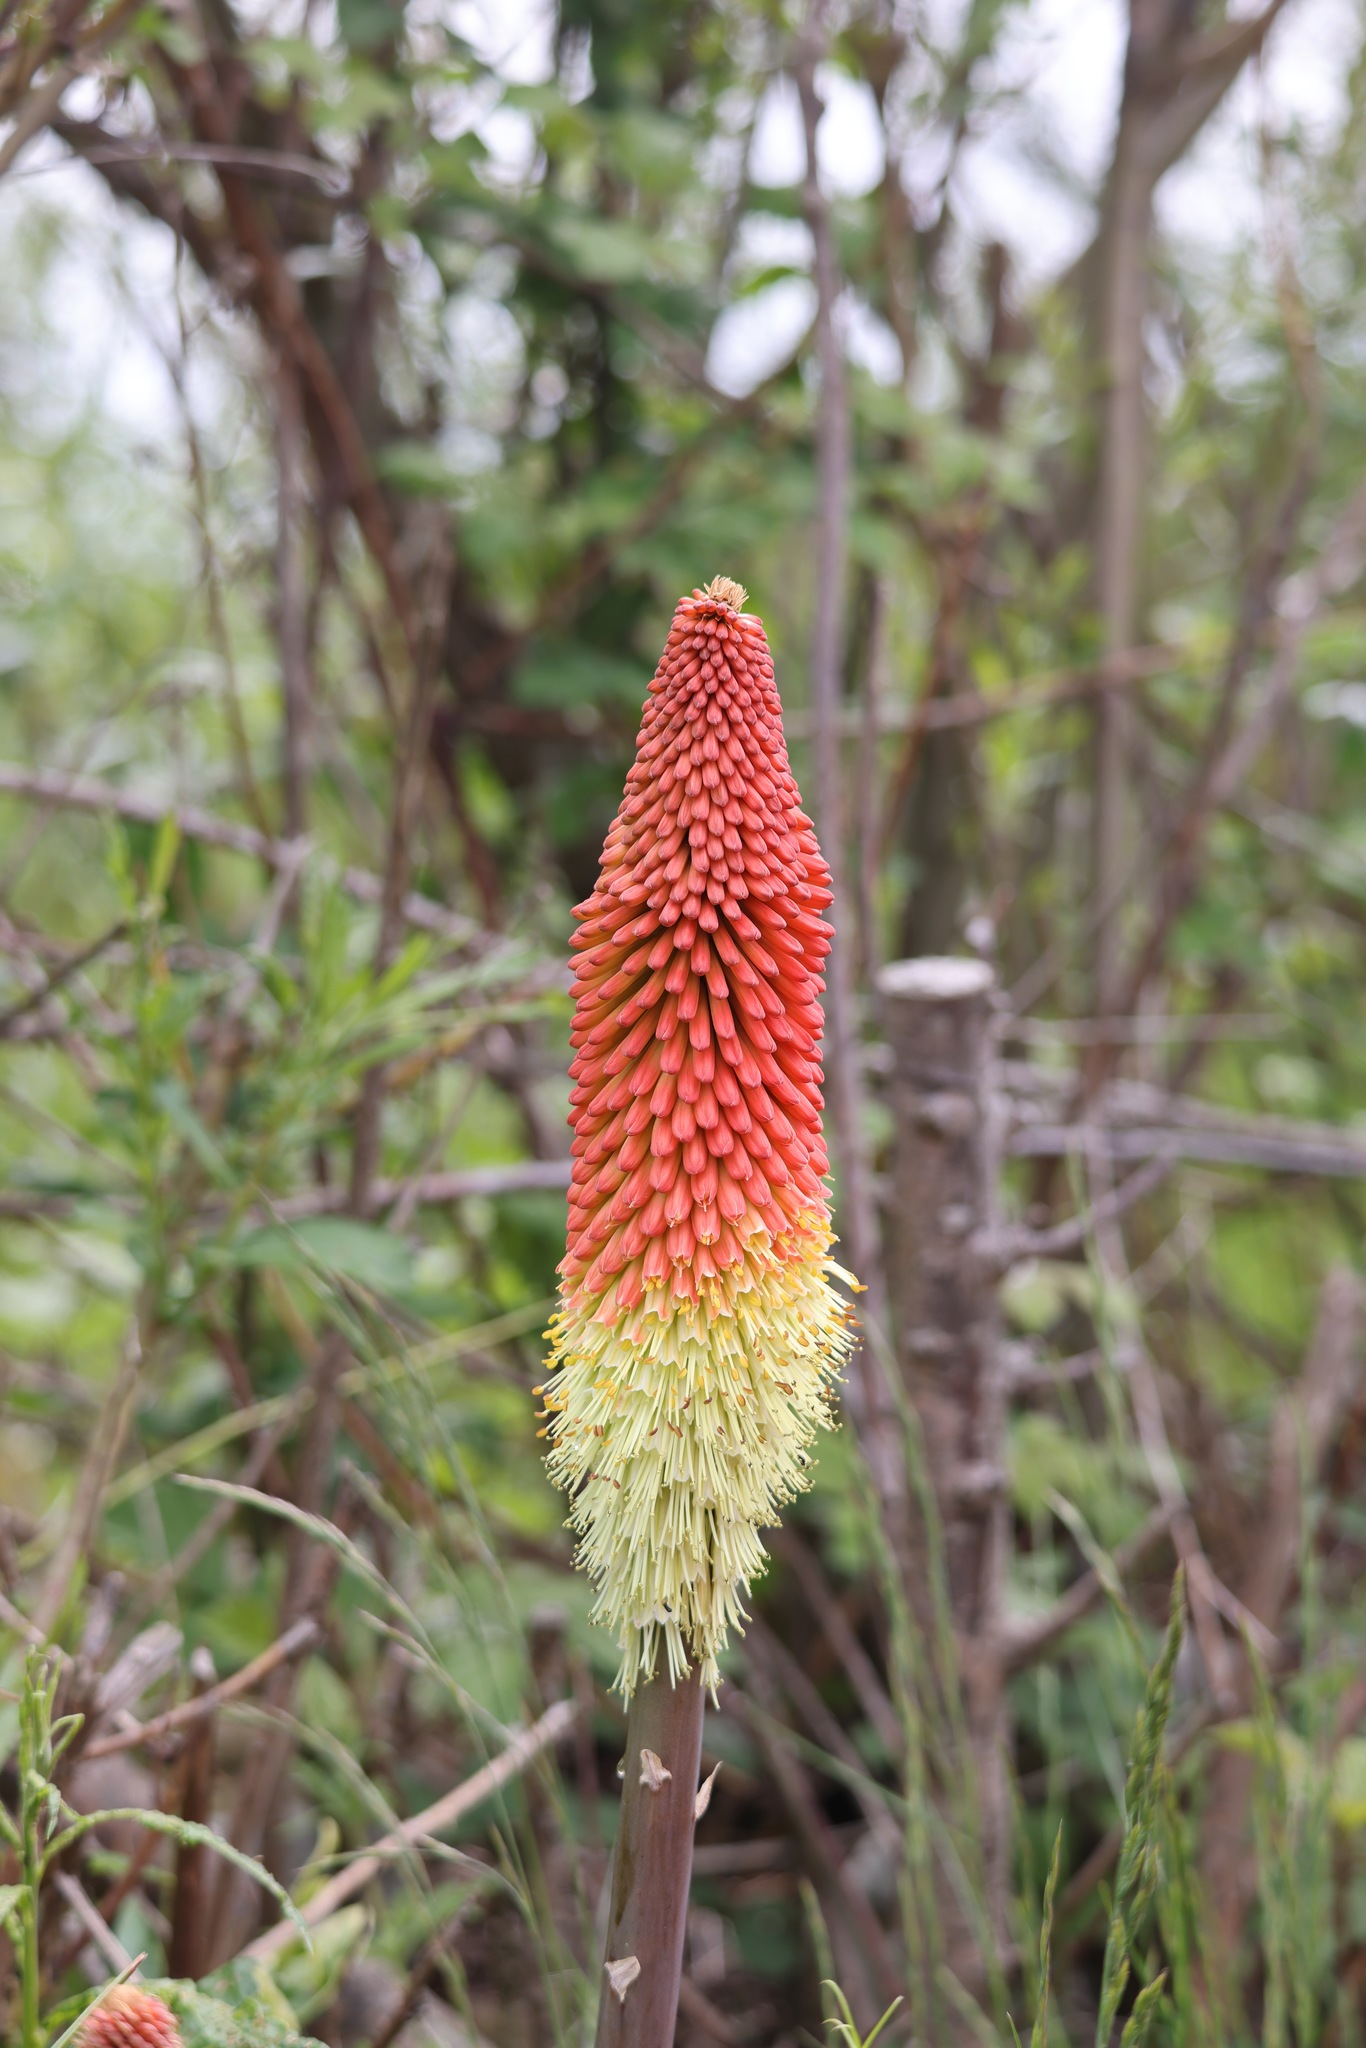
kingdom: Plantae
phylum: Tracheophyta
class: Liliopsida
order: Asparagales
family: Asphodelaceae
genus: Kniphofia
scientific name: Kniphofia uvaria
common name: Red-hot-poker
